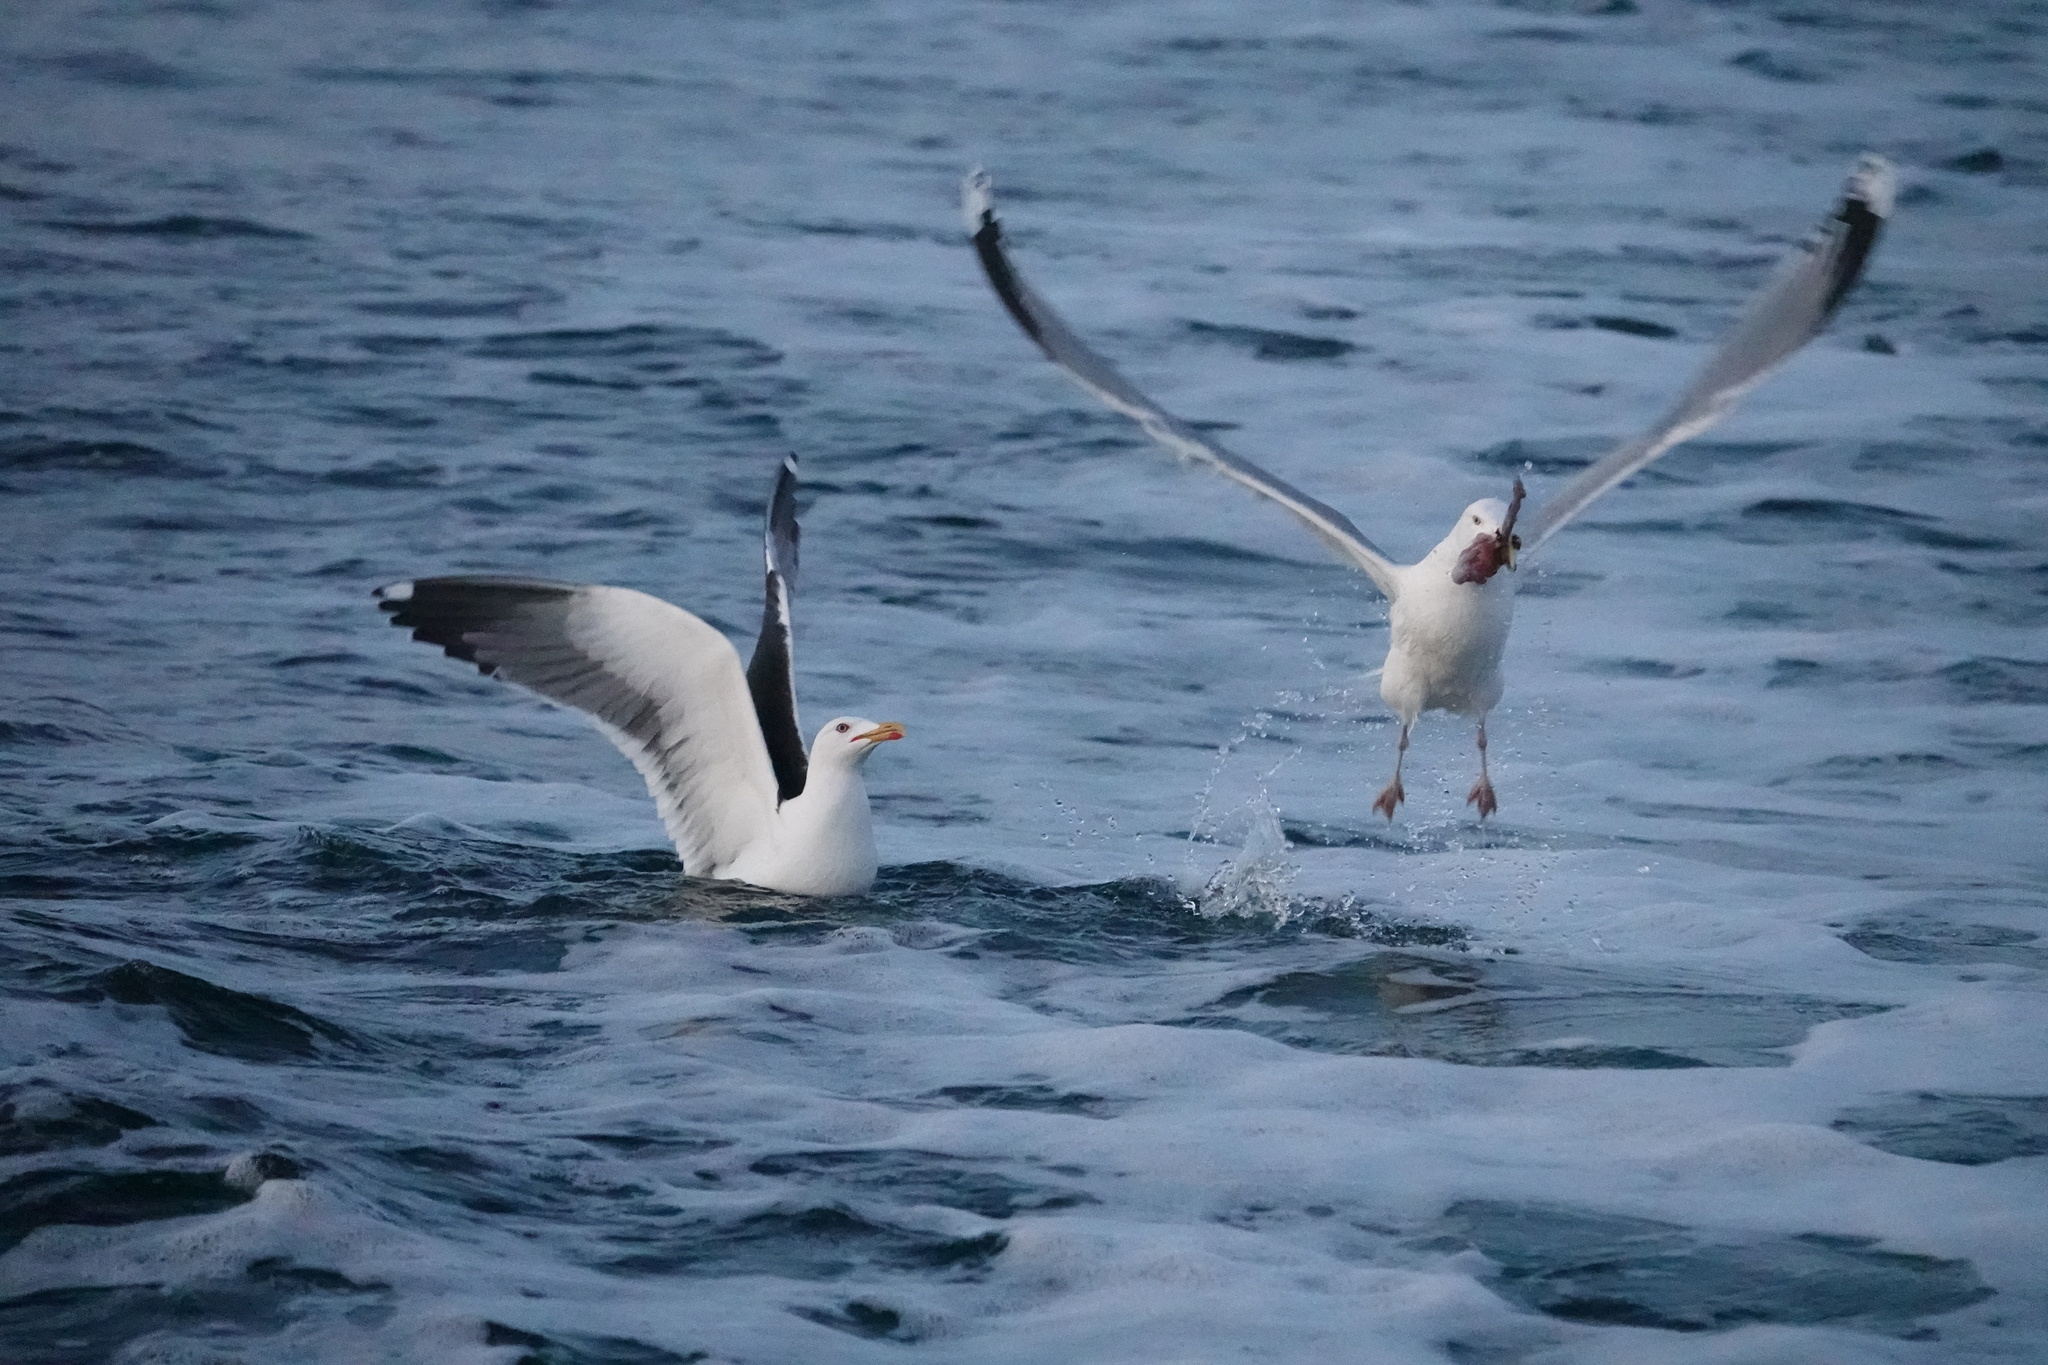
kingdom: Animalia
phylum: Chordata
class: Aves
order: Charadriiformes
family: Laridae
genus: Larus
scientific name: Larus argentatus
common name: Herring gull
